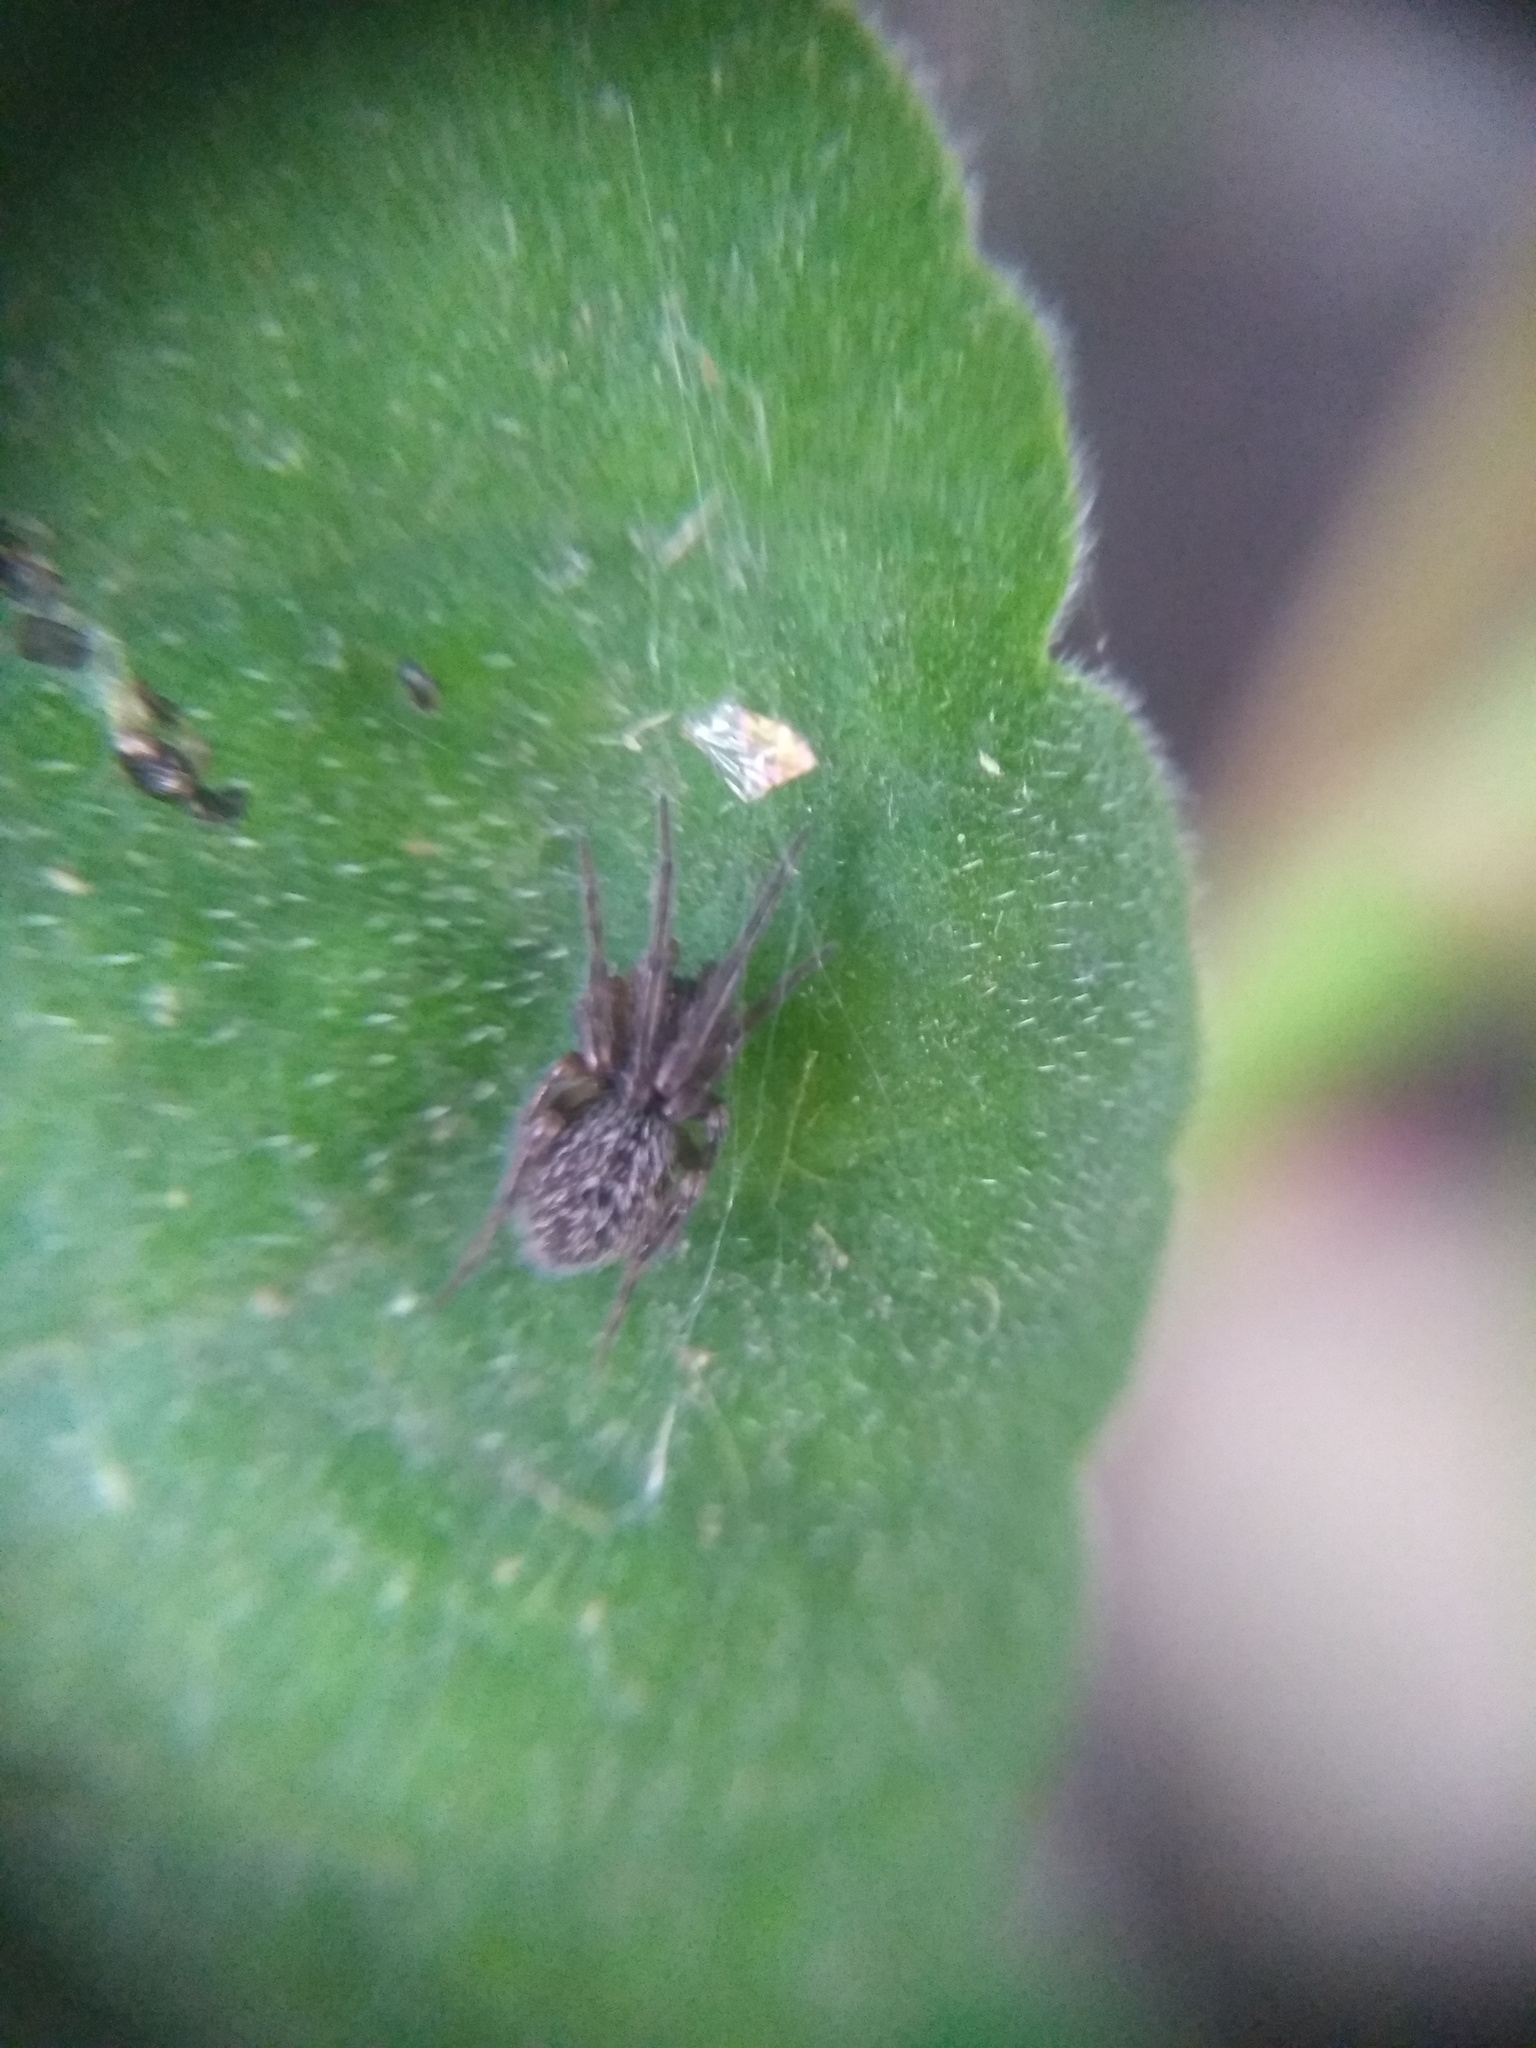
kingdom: Animalia
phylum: Arthropoda
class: Arachnida
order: Araneae
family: Desidae
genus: Badumna
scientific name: Badumna longinqua
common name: Gray house spider
